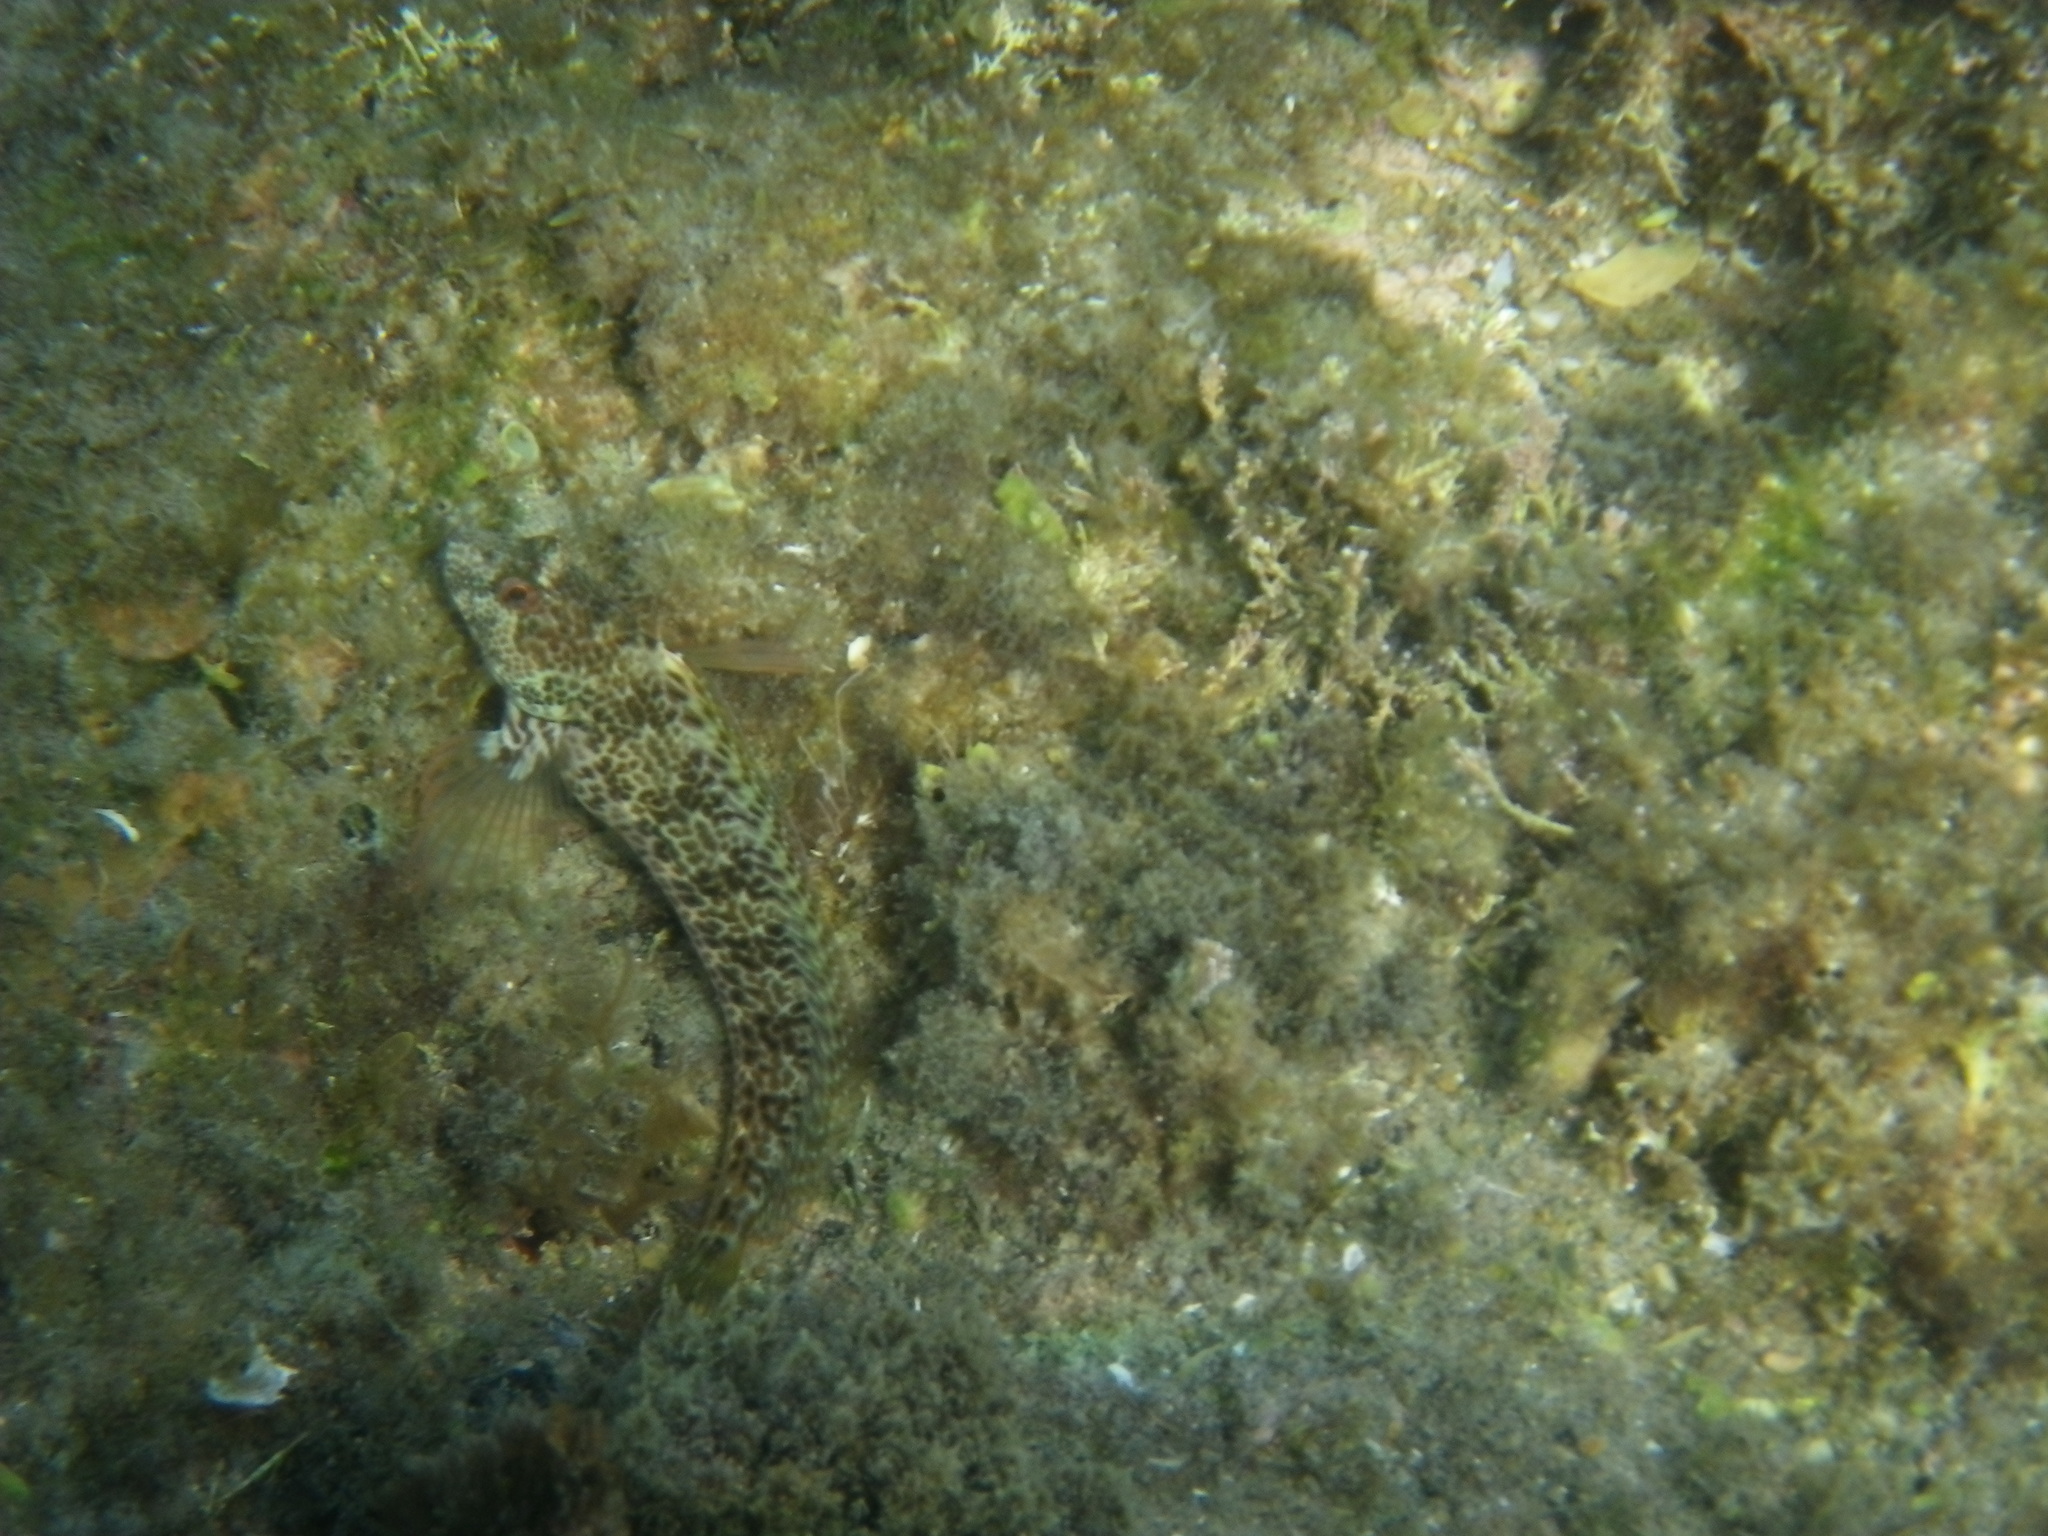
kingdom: Animalia
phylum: Chordata
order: Perciformes
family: Blenniidae
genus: Parablennius
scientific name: Parablennius pilicornis
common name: Ringneck blenny
